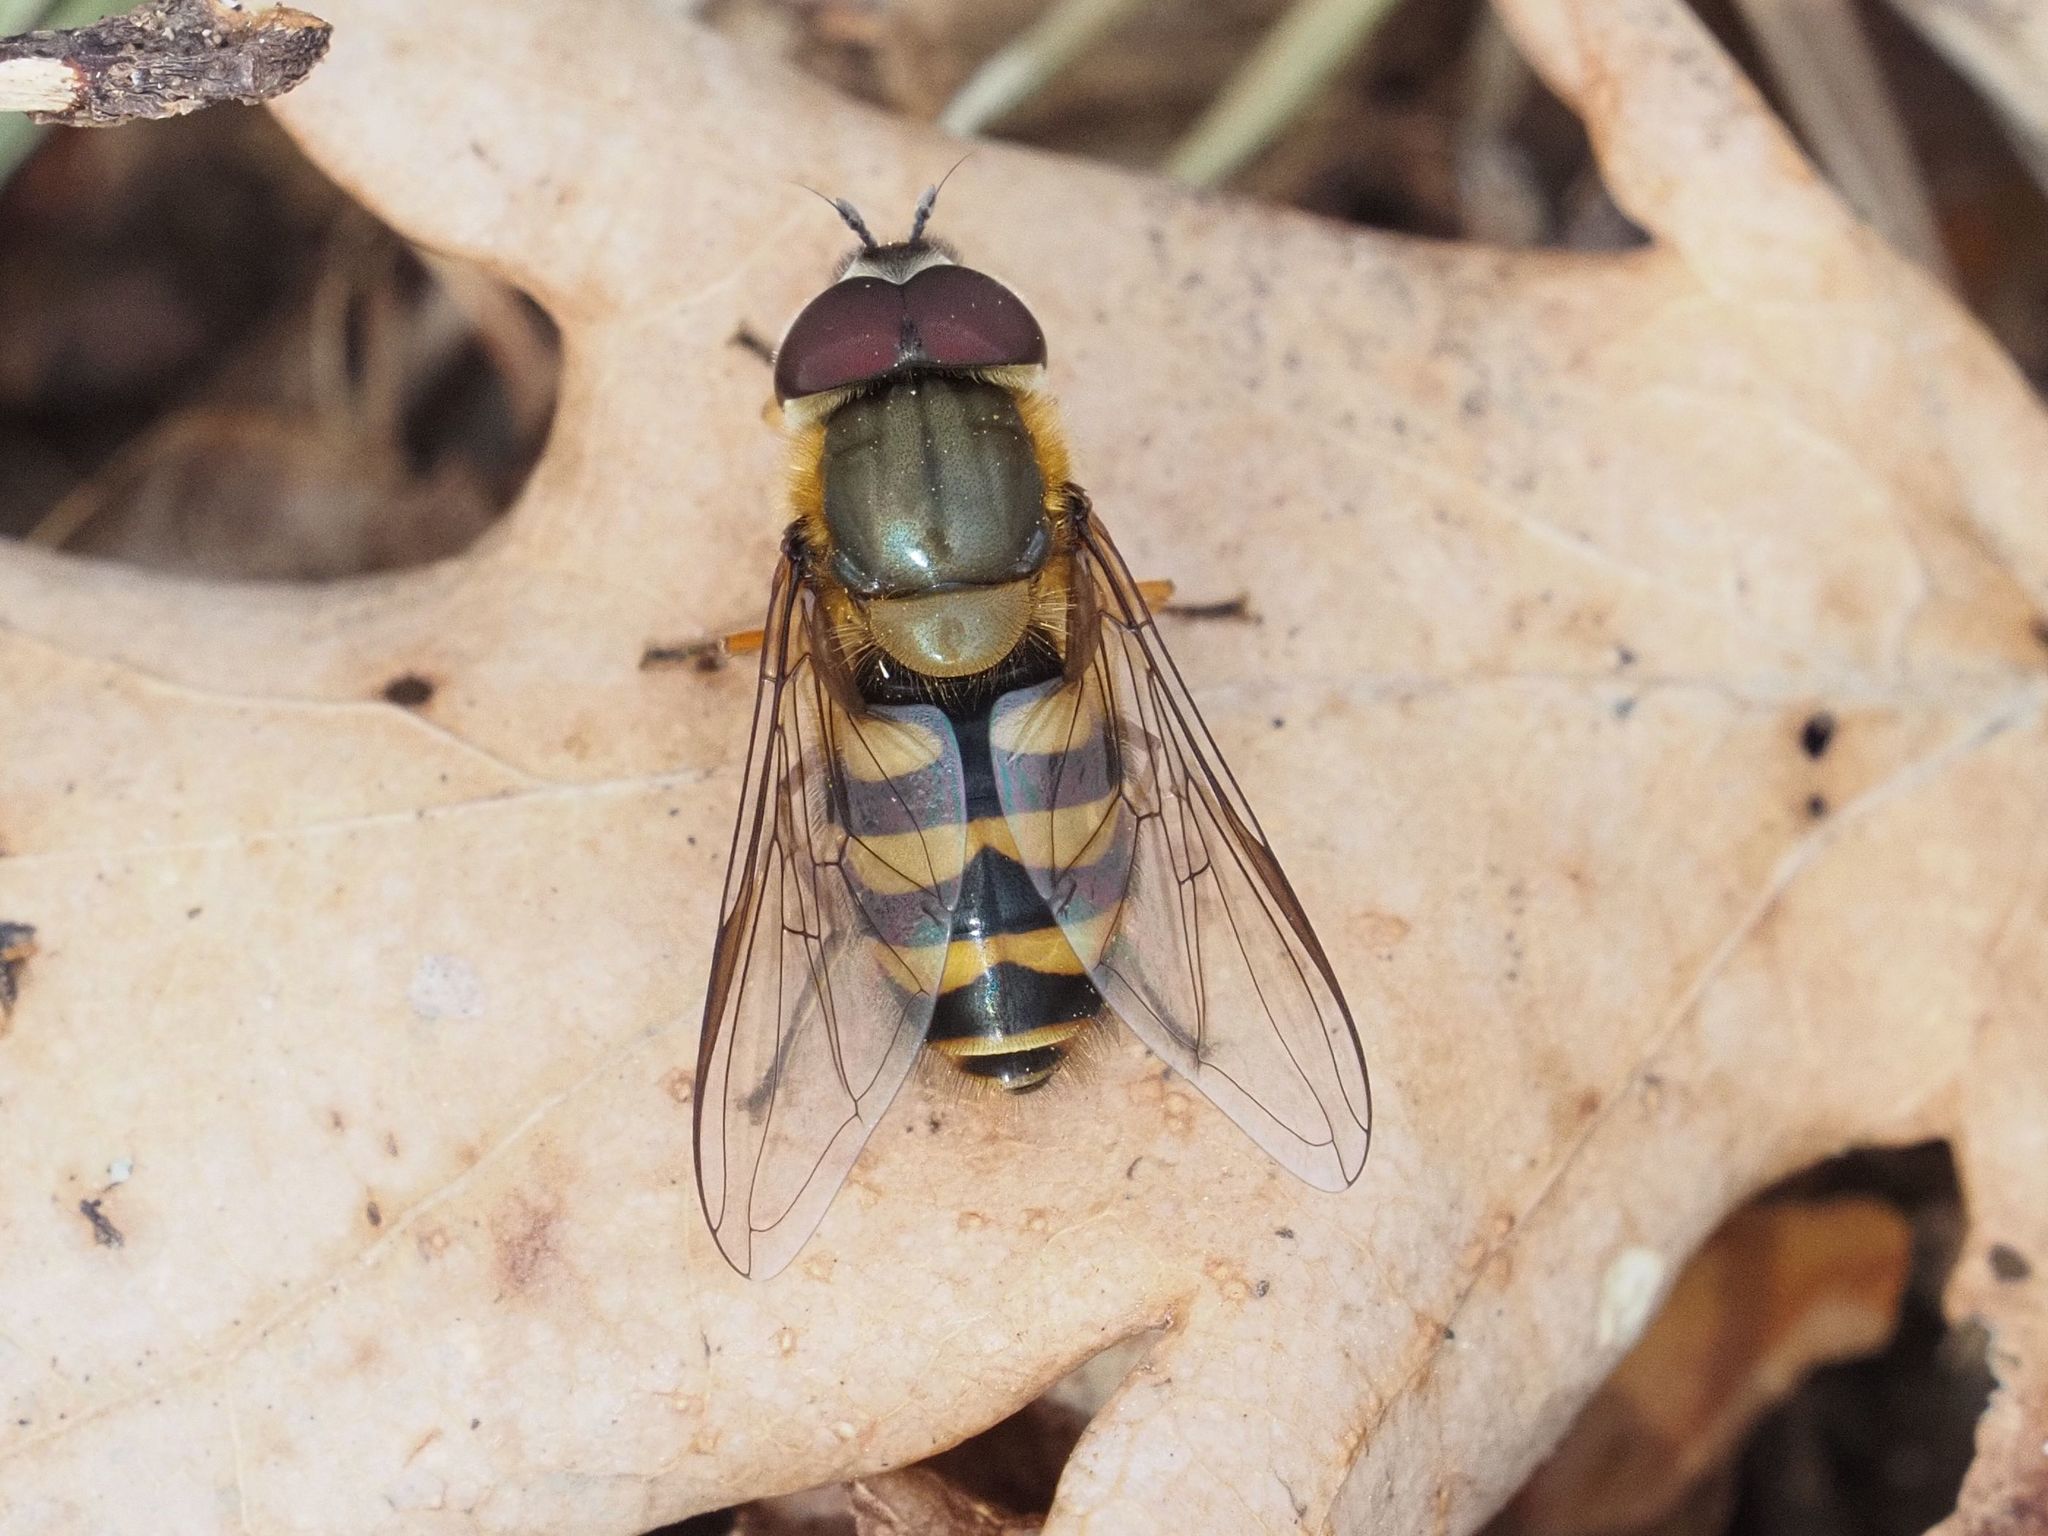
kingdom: Animalia
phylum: Arthropoda
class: Insecta
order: Diptera
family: Syrphidae
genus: Syrphus
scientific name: Syrphus torvus
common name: Hairy-eyed flower fly
